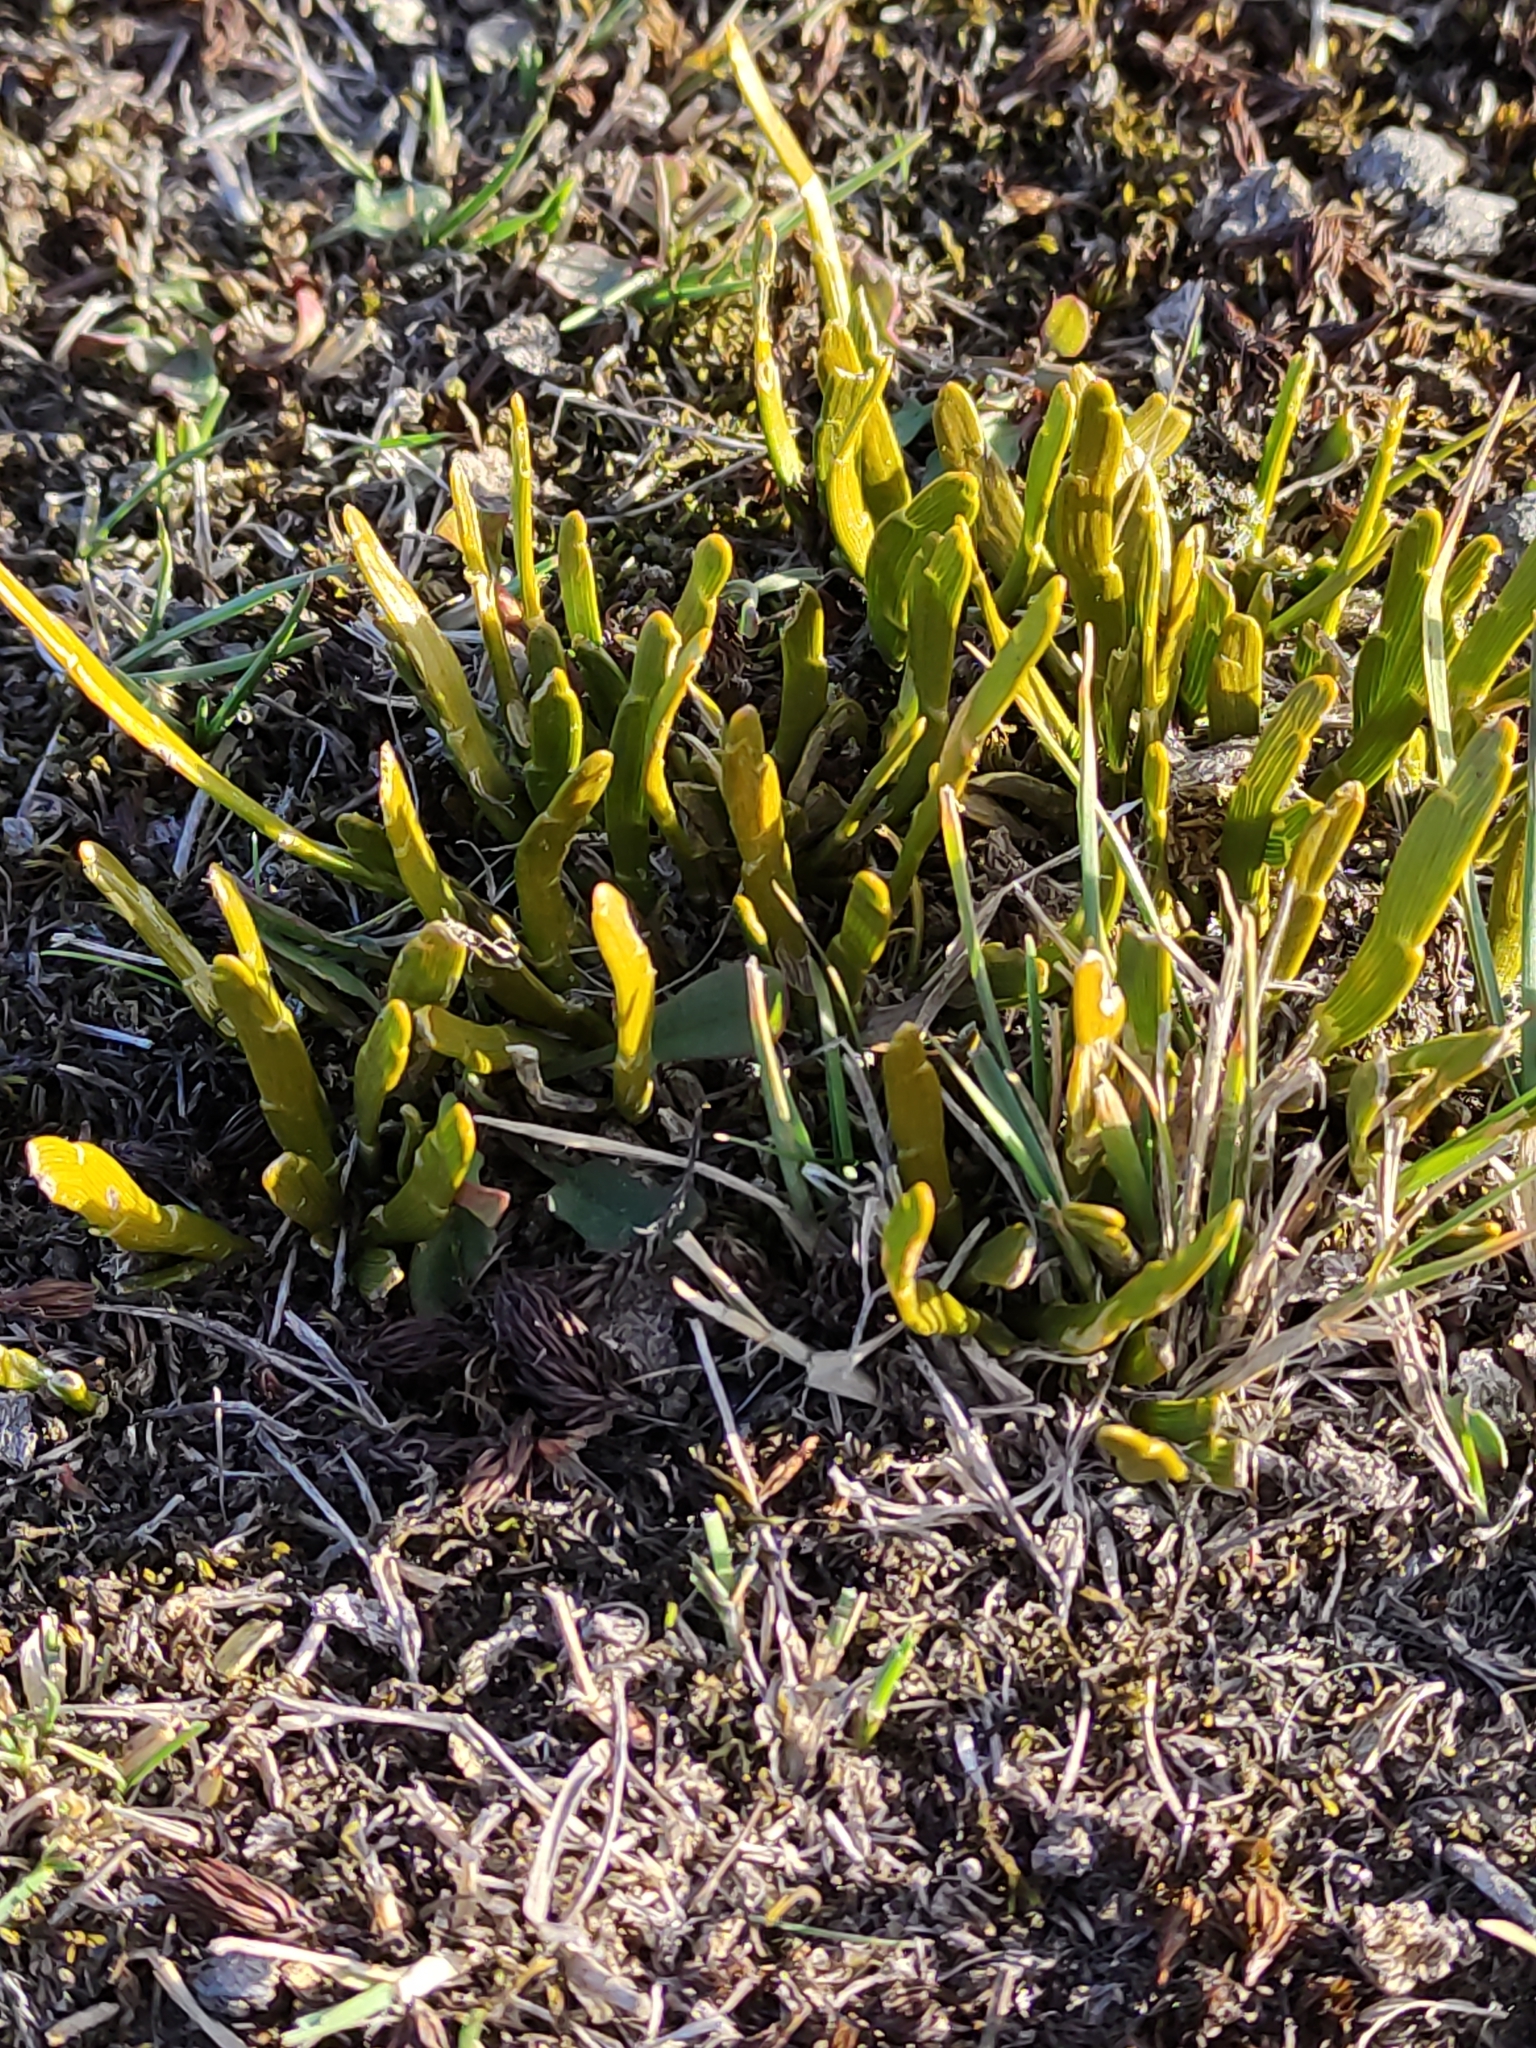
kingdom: Plantae
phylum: Tracheophyta
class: Magnoliopsida
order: Fabales
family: Fabaceae
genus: Carmichaelia
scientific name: Carmichaelia corrugata
